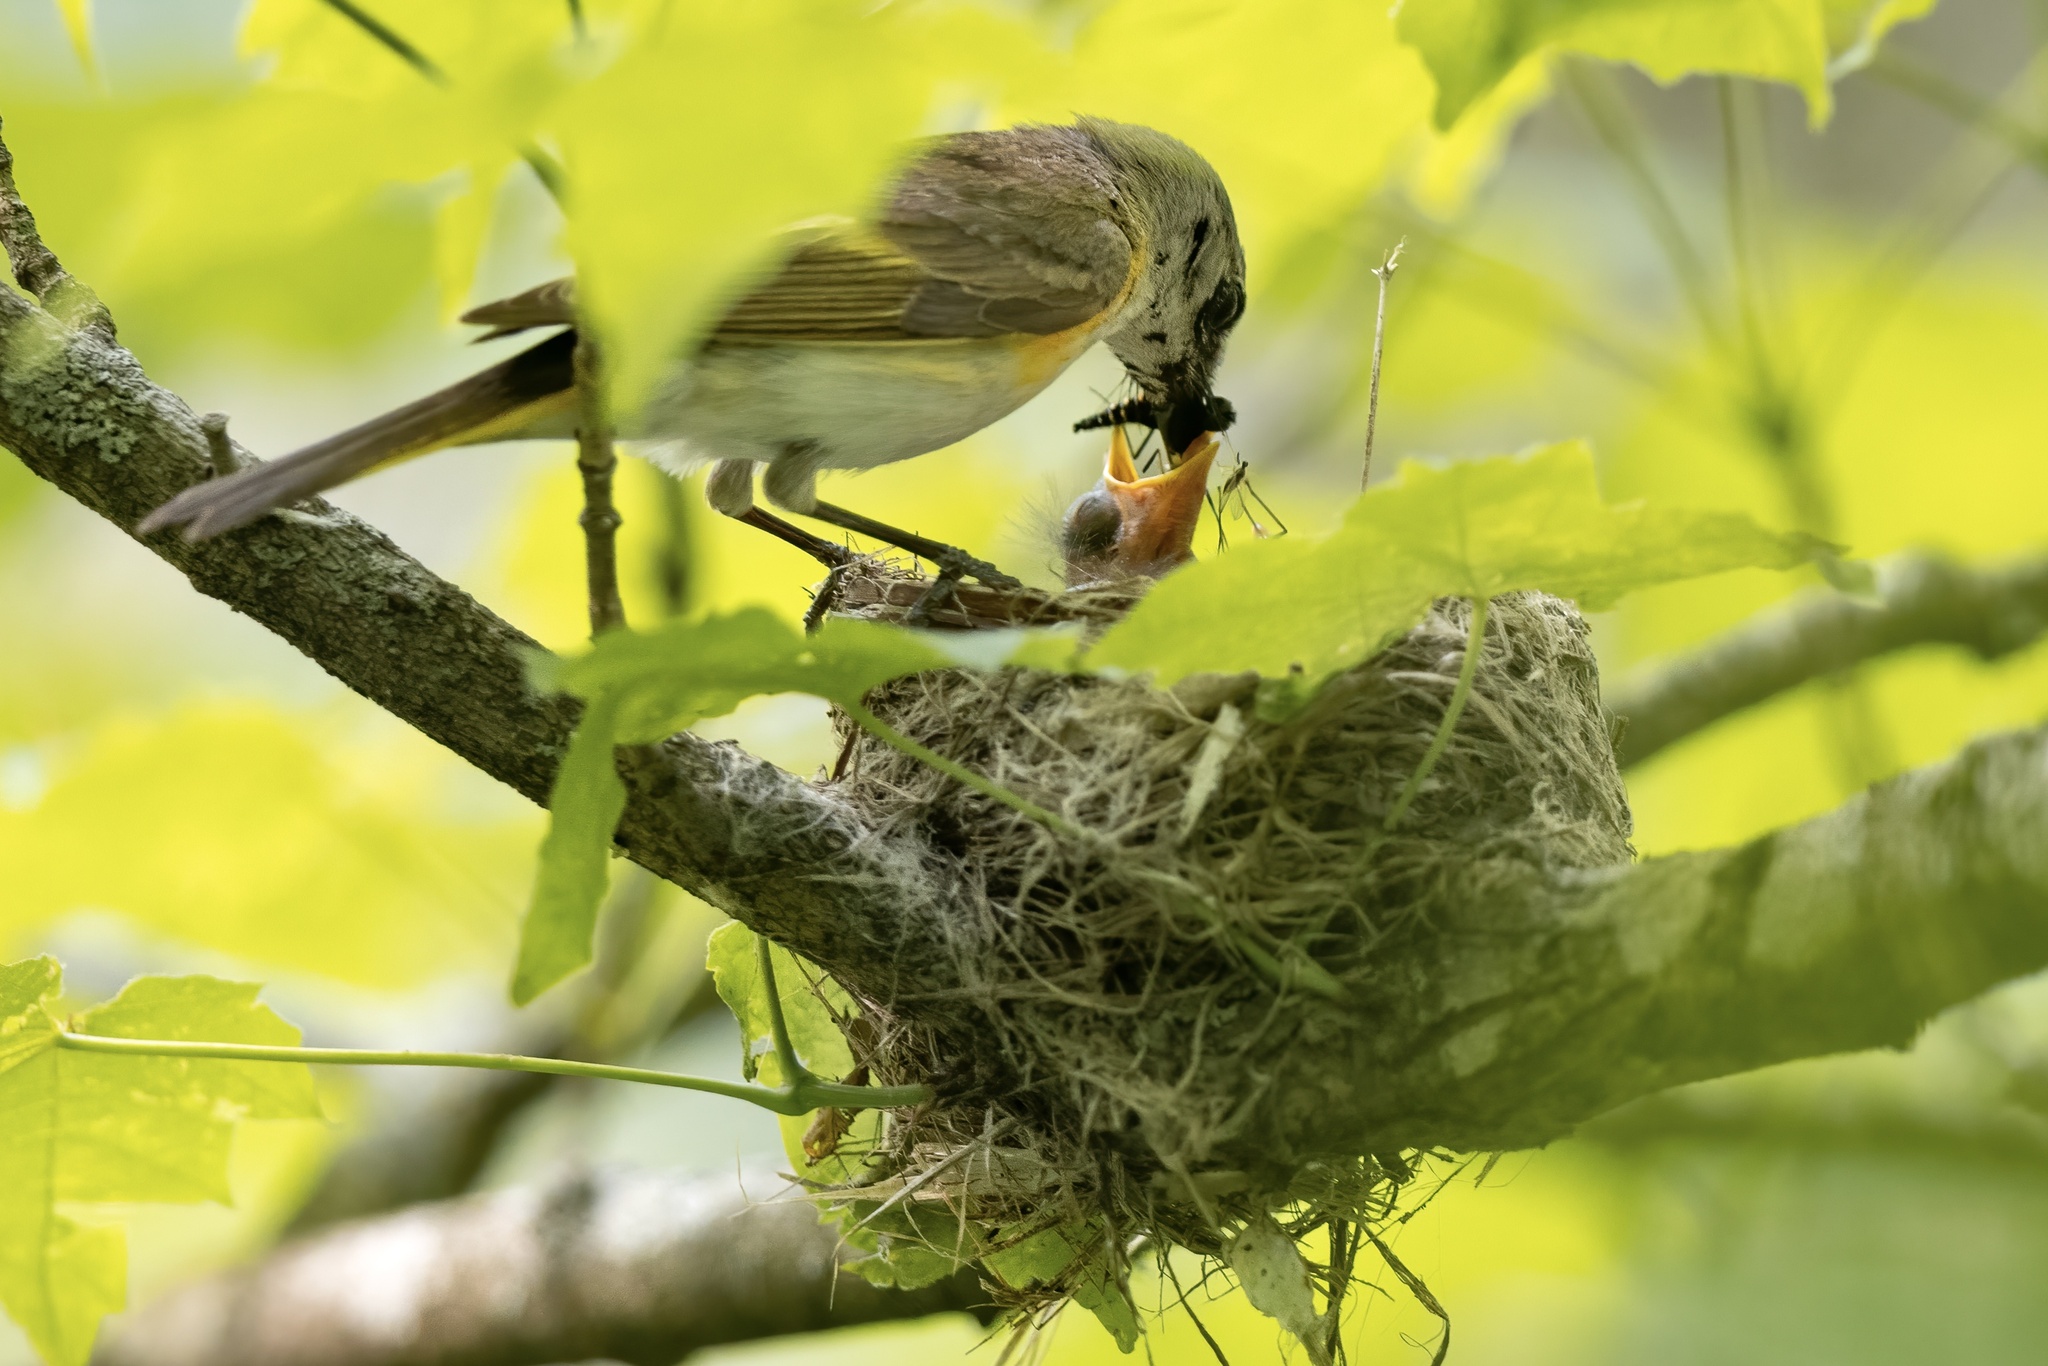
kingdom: Animalia
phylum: Chordata
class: Aves
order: Passeriformes
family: Parulidae
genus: Setophaga
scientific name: Setophaga ruticilla
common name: American redstart
